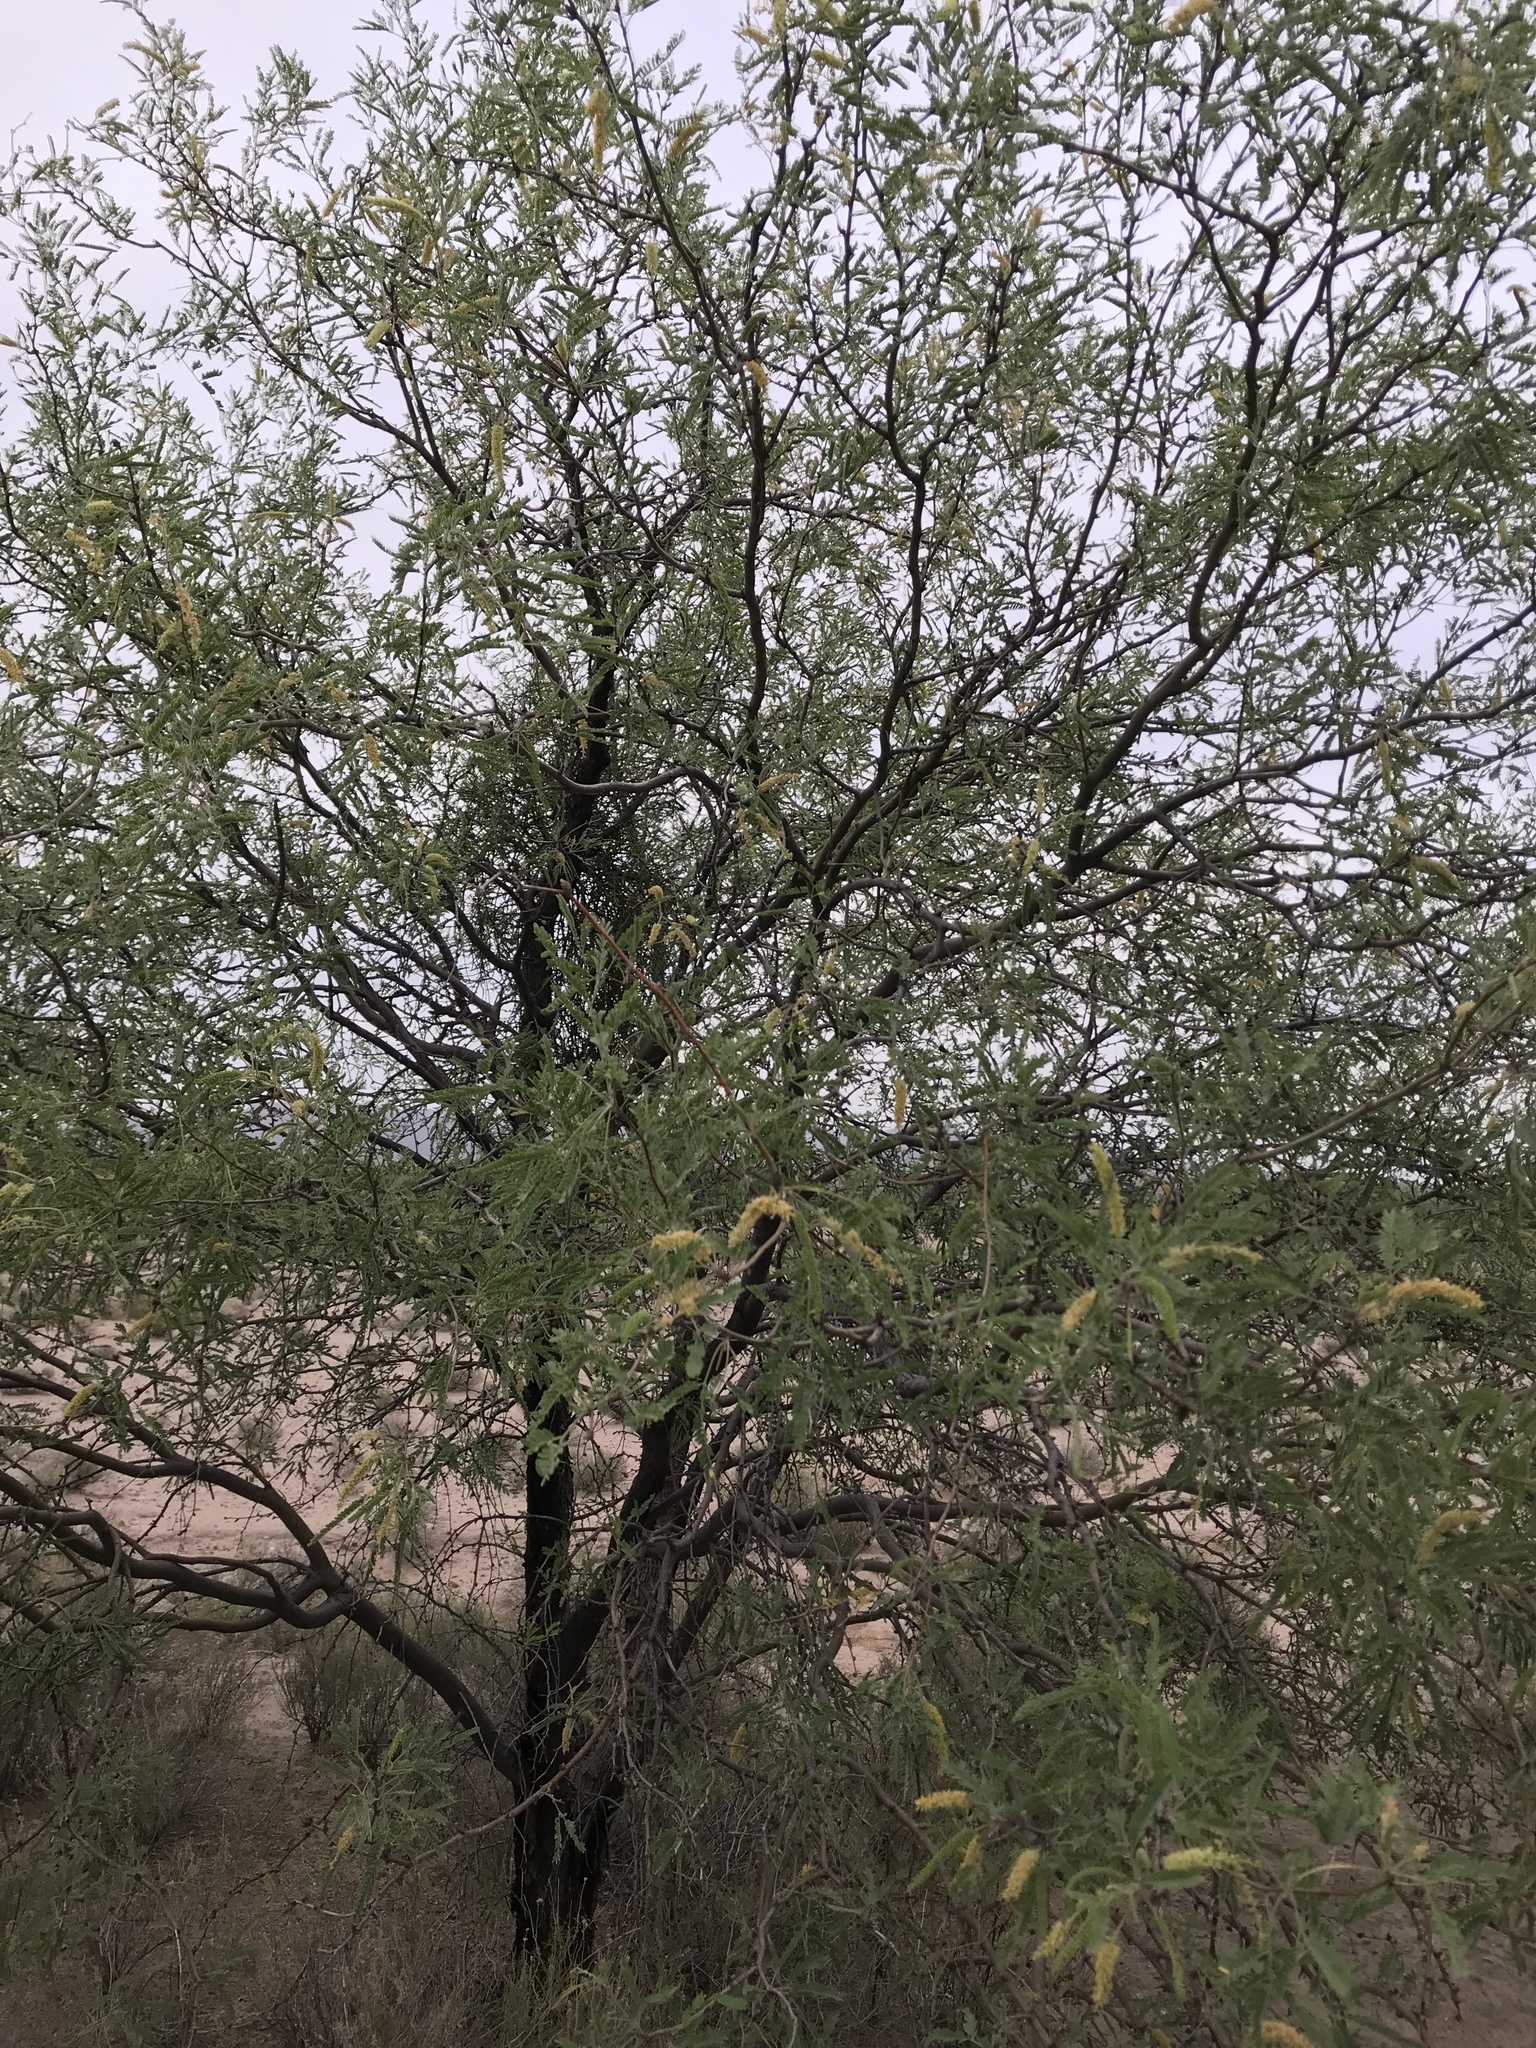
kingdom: Plantae
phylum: Tracheophyta
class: Magnoliopsida
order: Fabales
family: Fabaceae
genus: Prosopis
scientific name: Prosopis velutina
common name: Velvet mesquite
